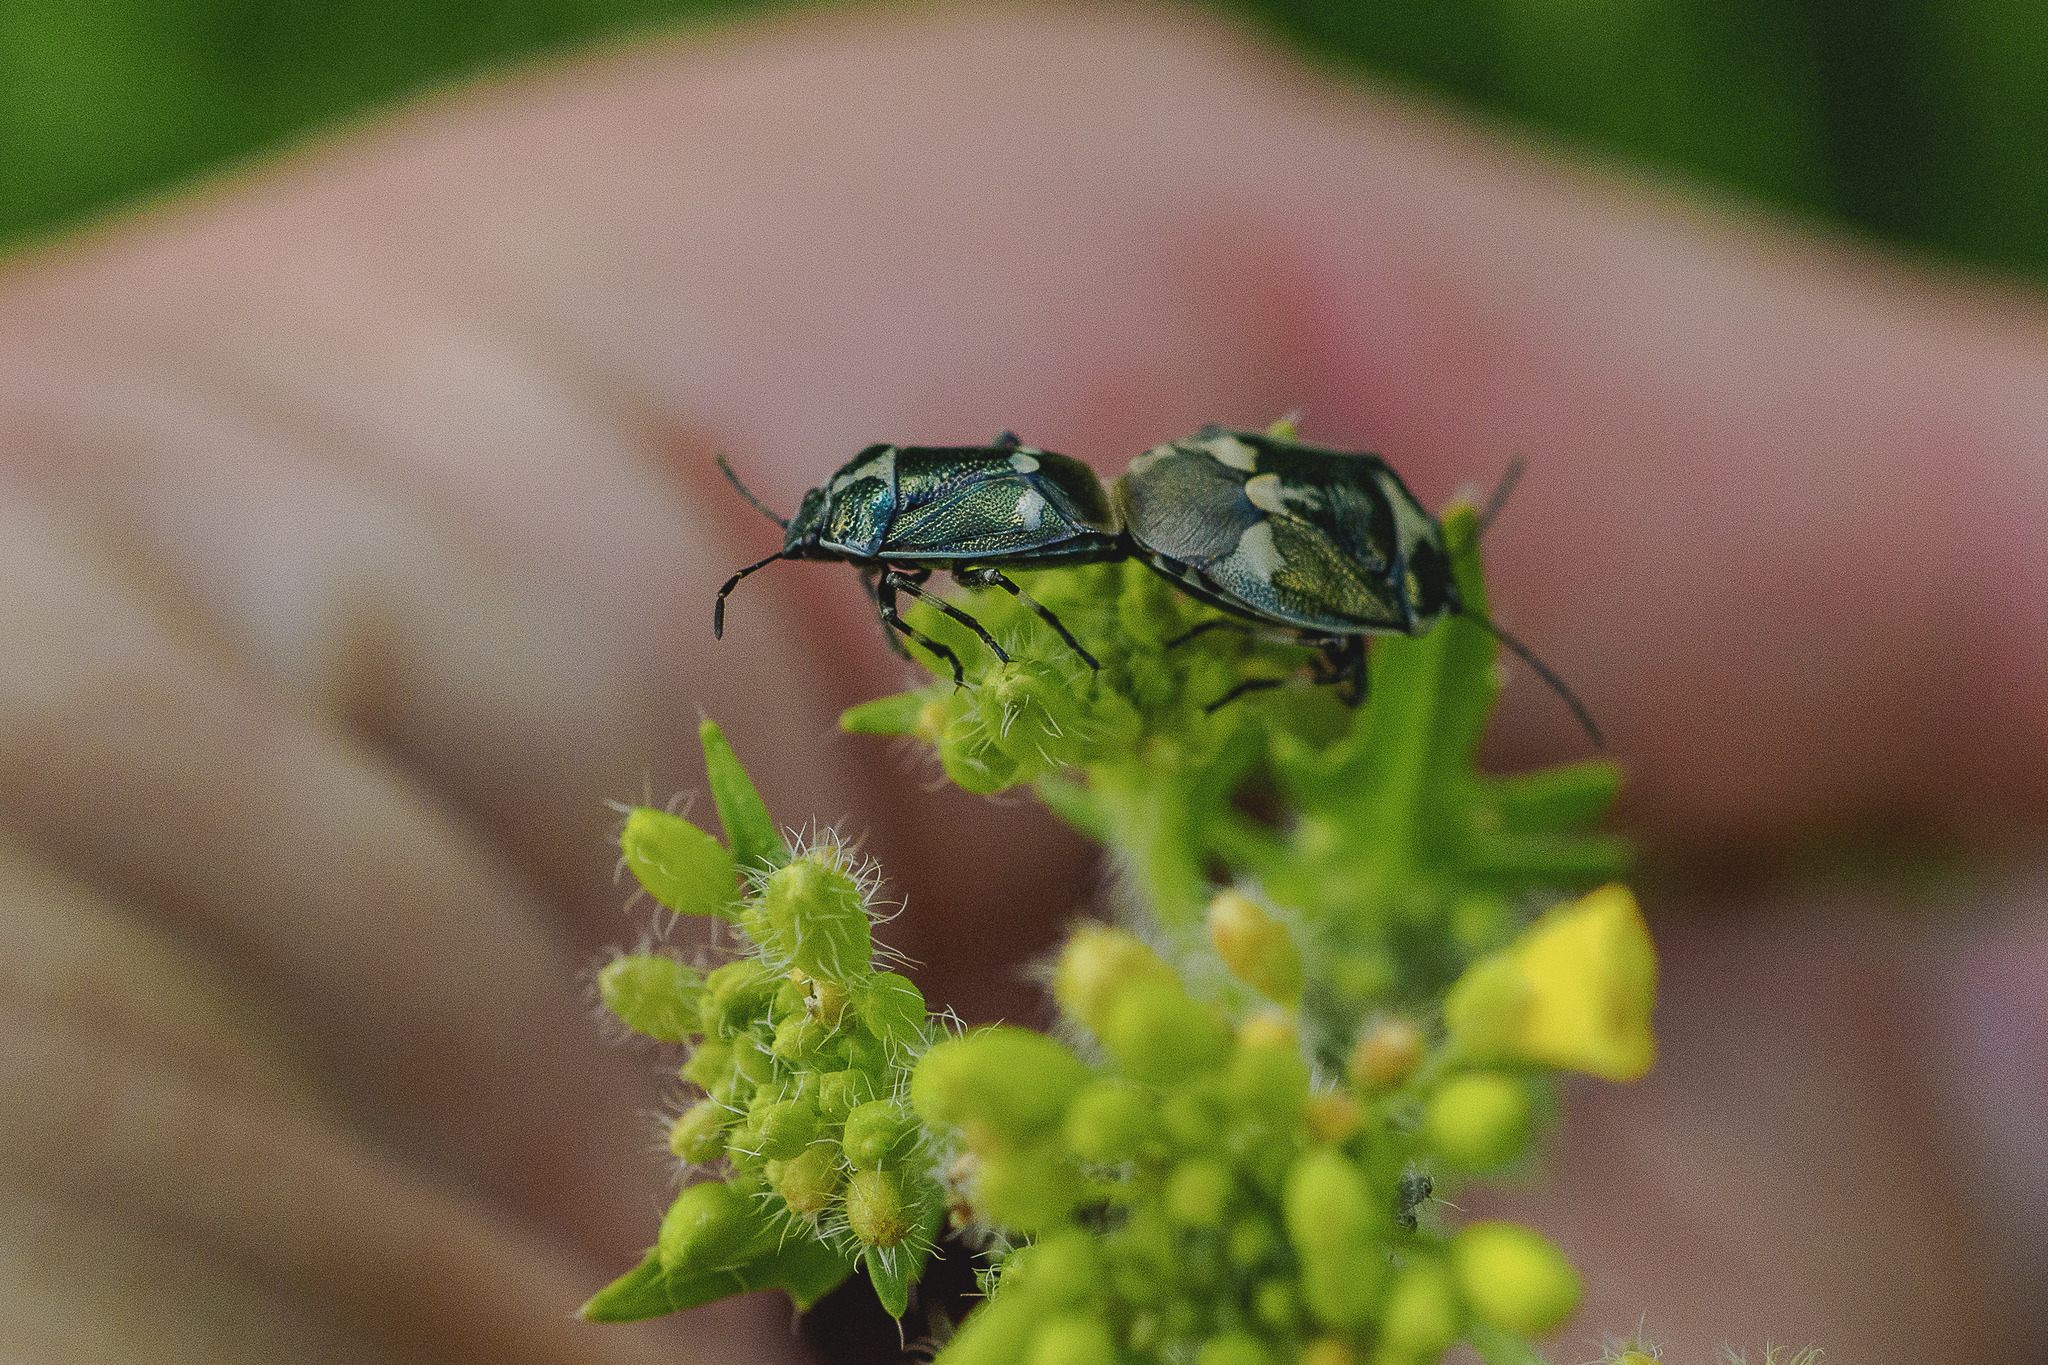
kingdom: Animalia
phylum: Arthropoda
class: Insecta
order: Hemiptera
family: Pentatomidae
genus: Eurydema
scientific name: Eurydema oleracea
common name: Cabbage bug
